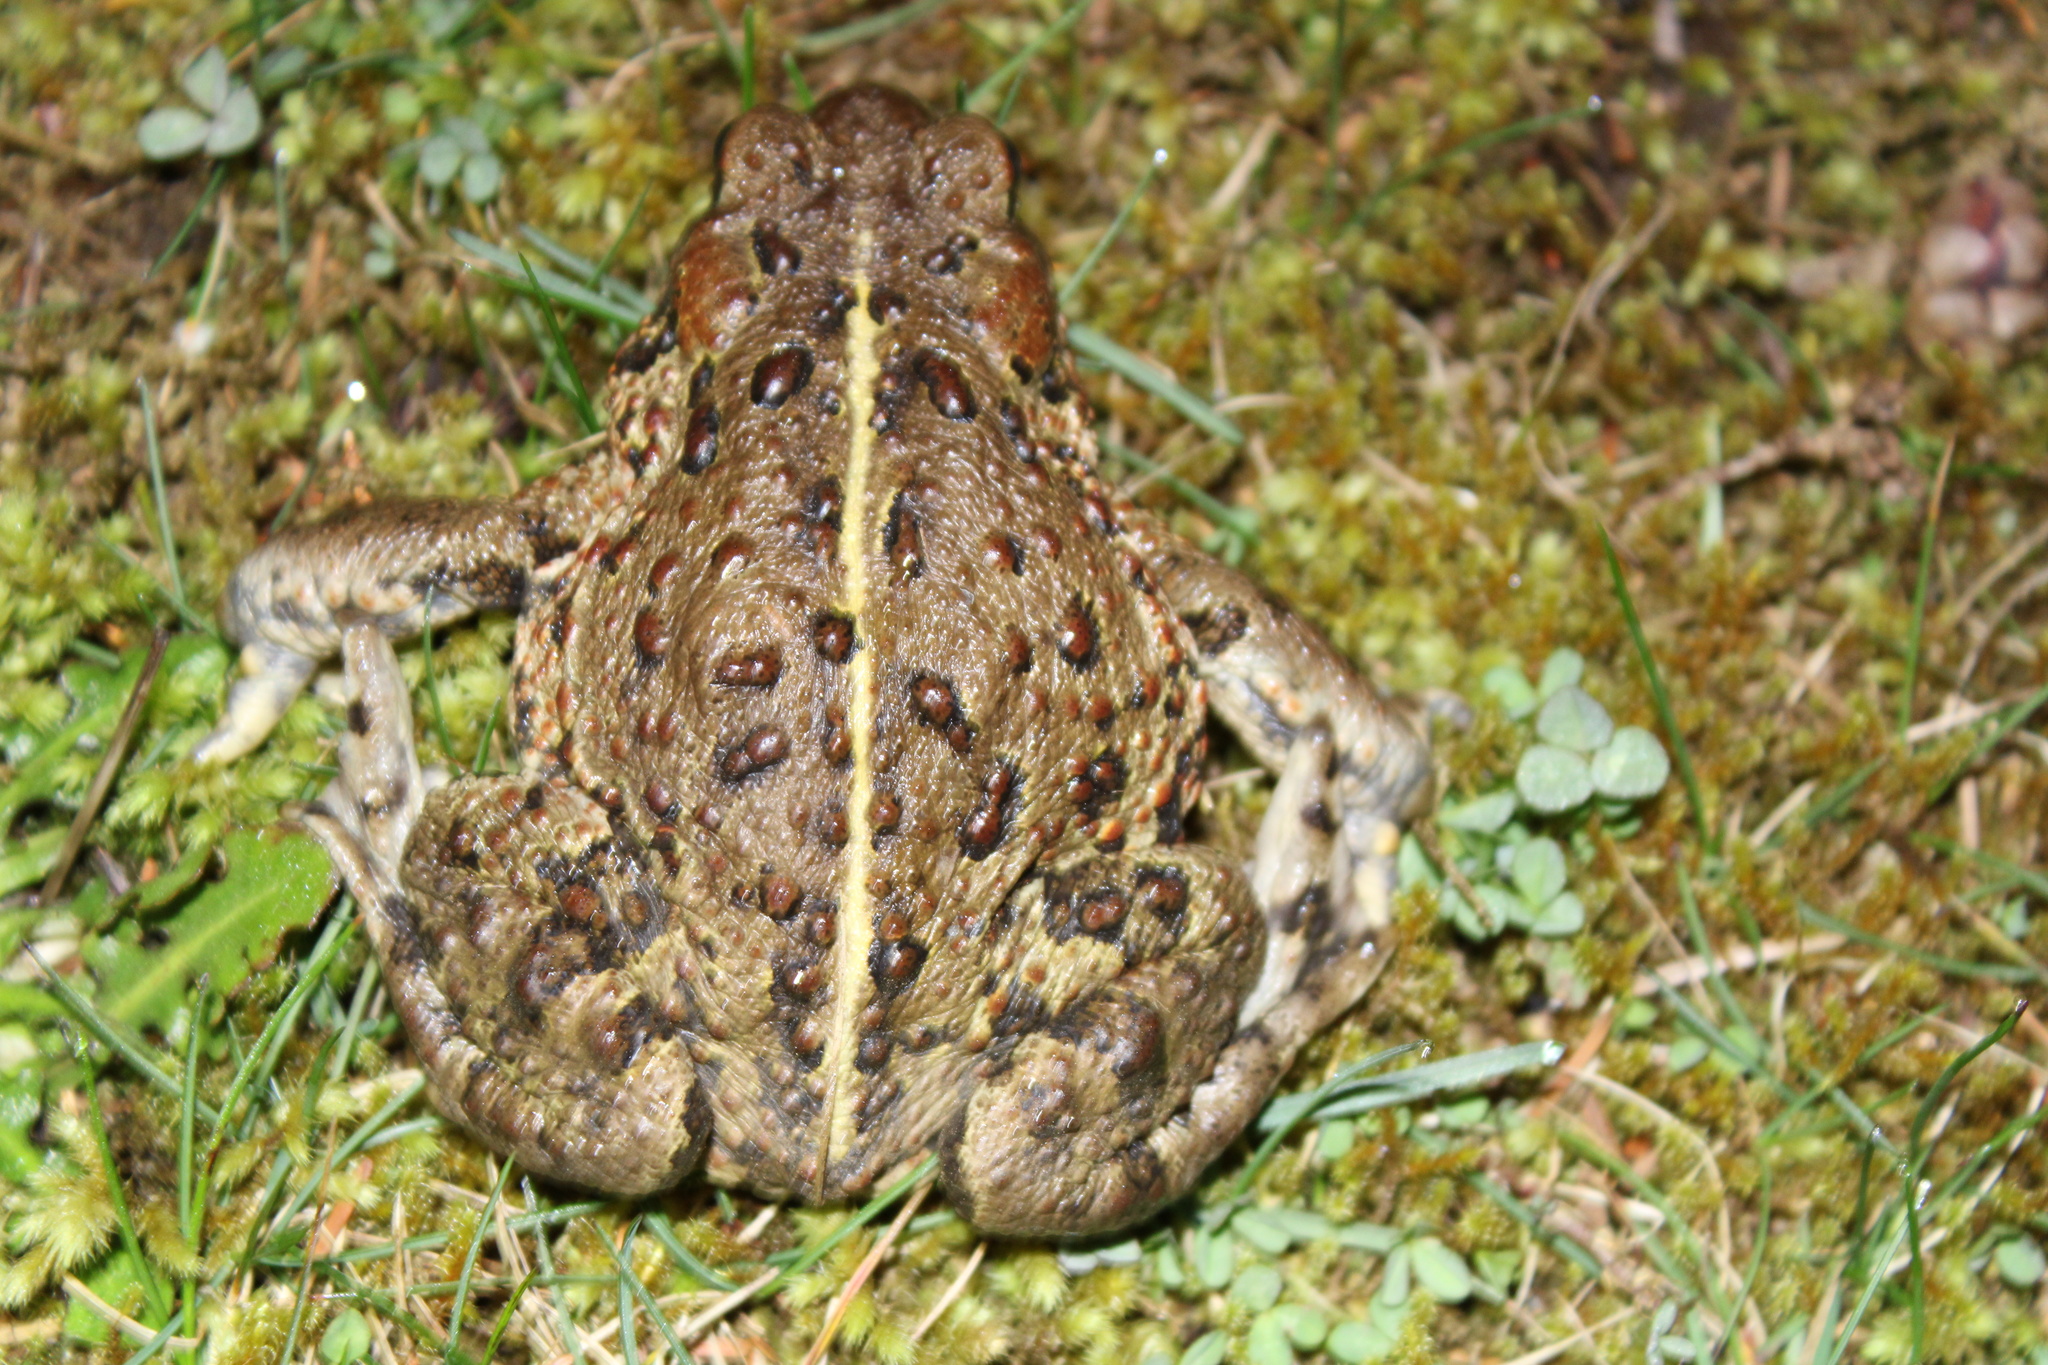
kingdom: Animalia
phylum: Chordata
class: Amphibia
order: Anura
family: Bufonidae
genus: Anaxyrus
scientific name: Anaxyrus boreas
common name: Western toad
